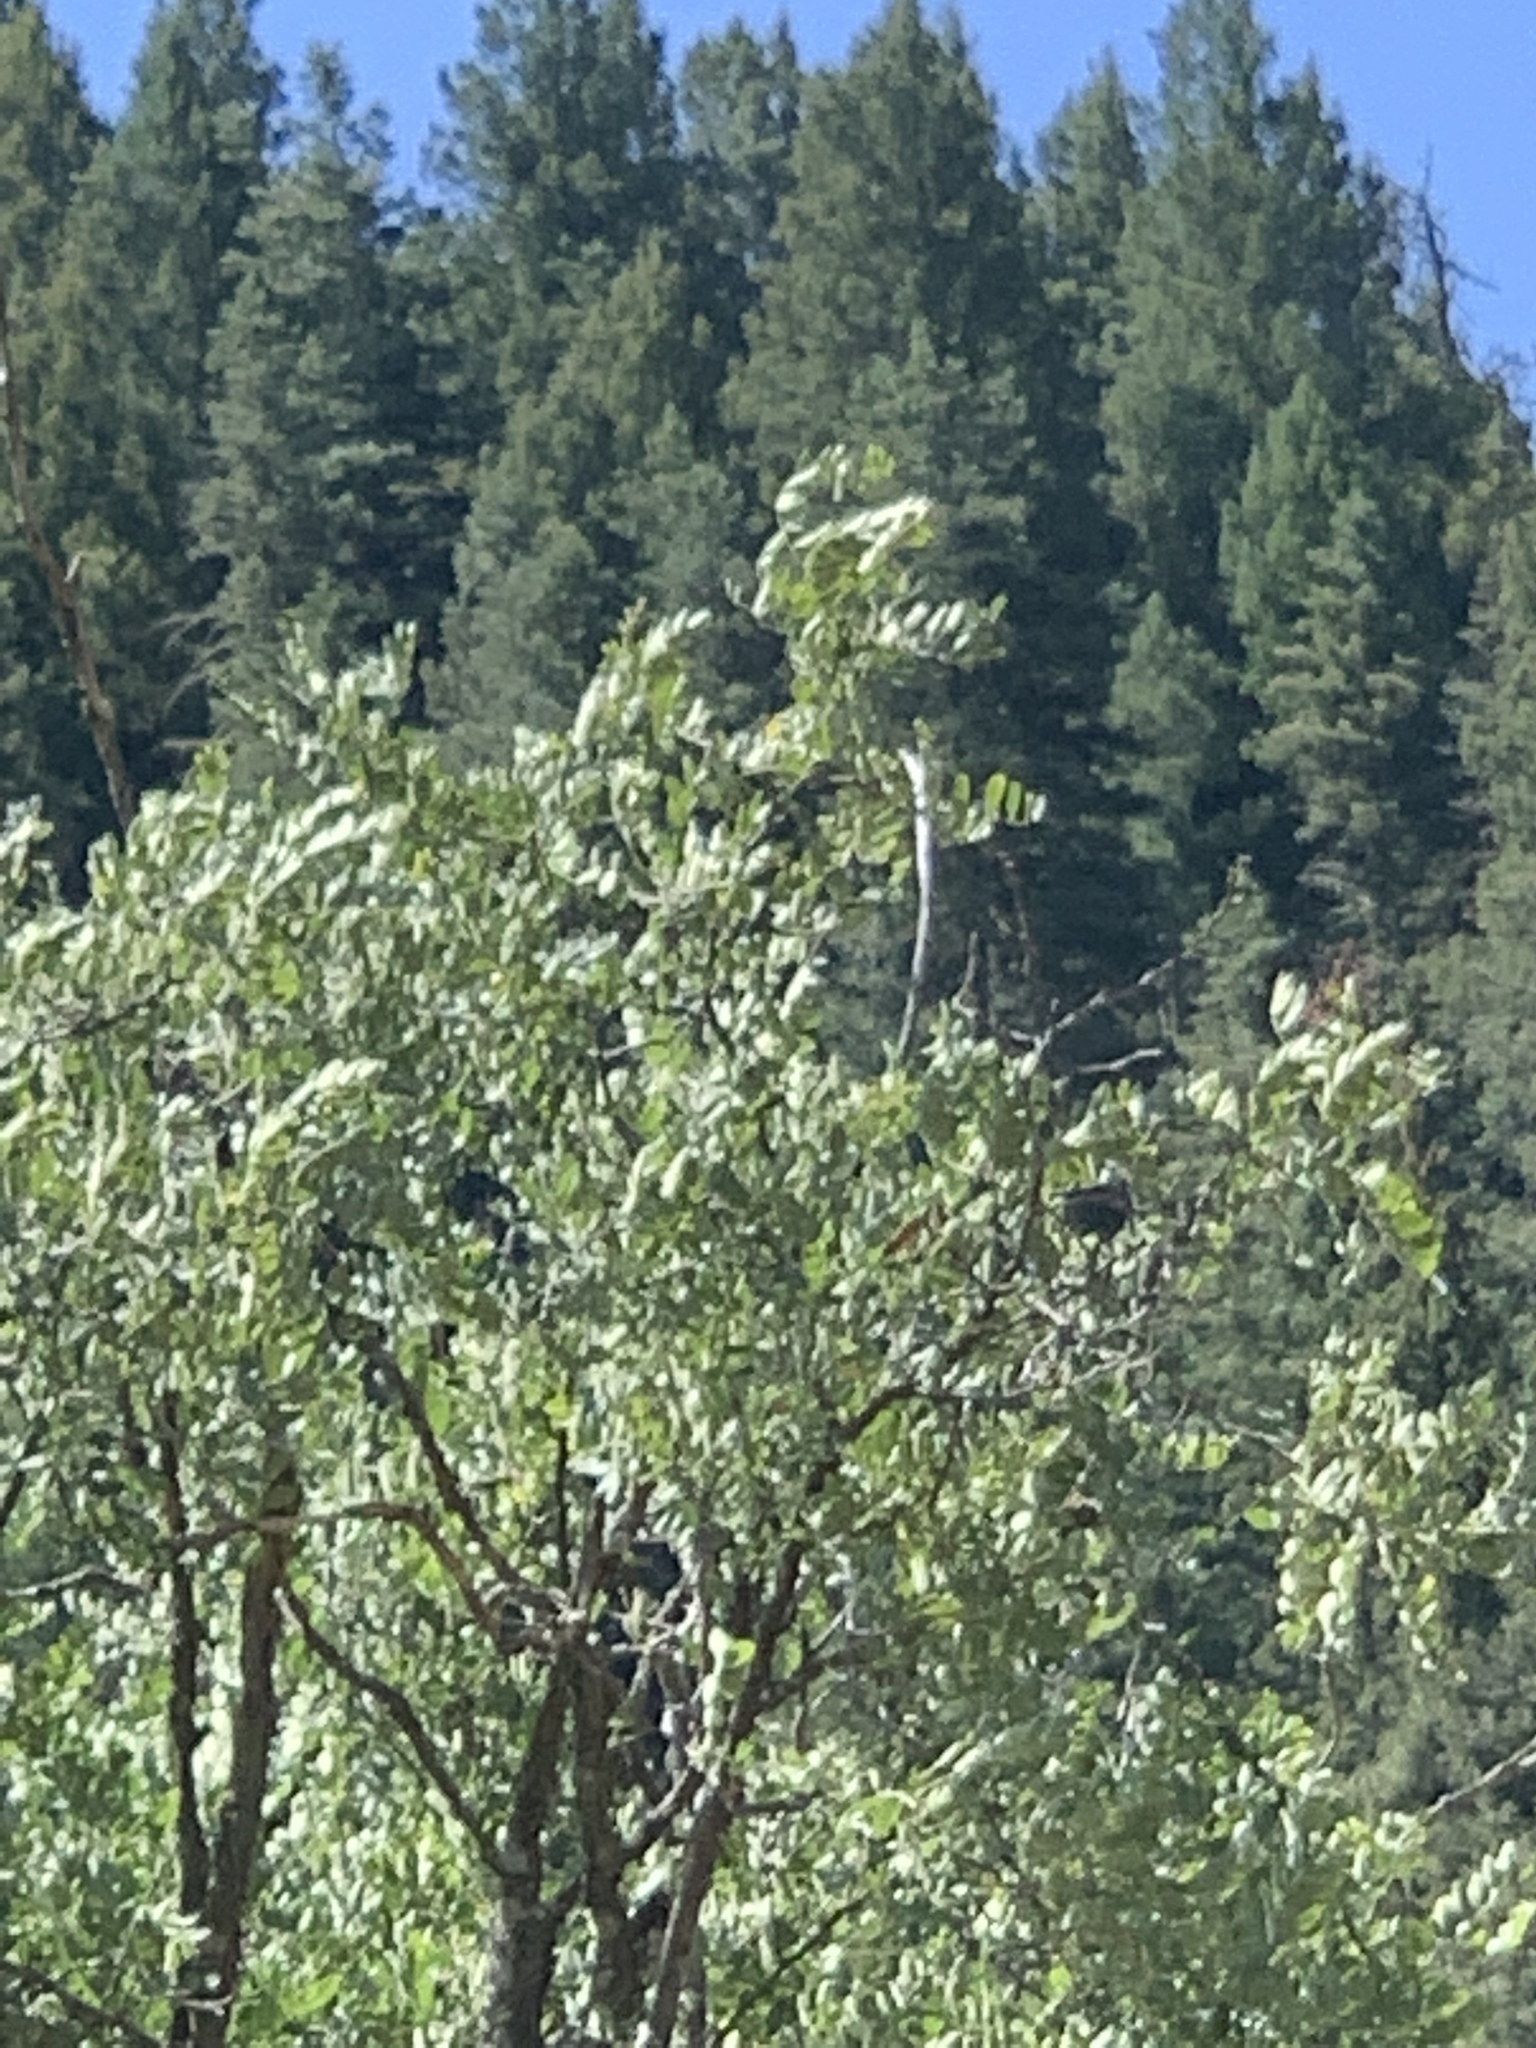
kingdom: Plantae
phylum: Tracheophyta
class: Magnoliopsida
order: Fabales
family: Fabaceae
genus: Robinia
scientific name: Robinia neomexicana
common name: New mexico locust
